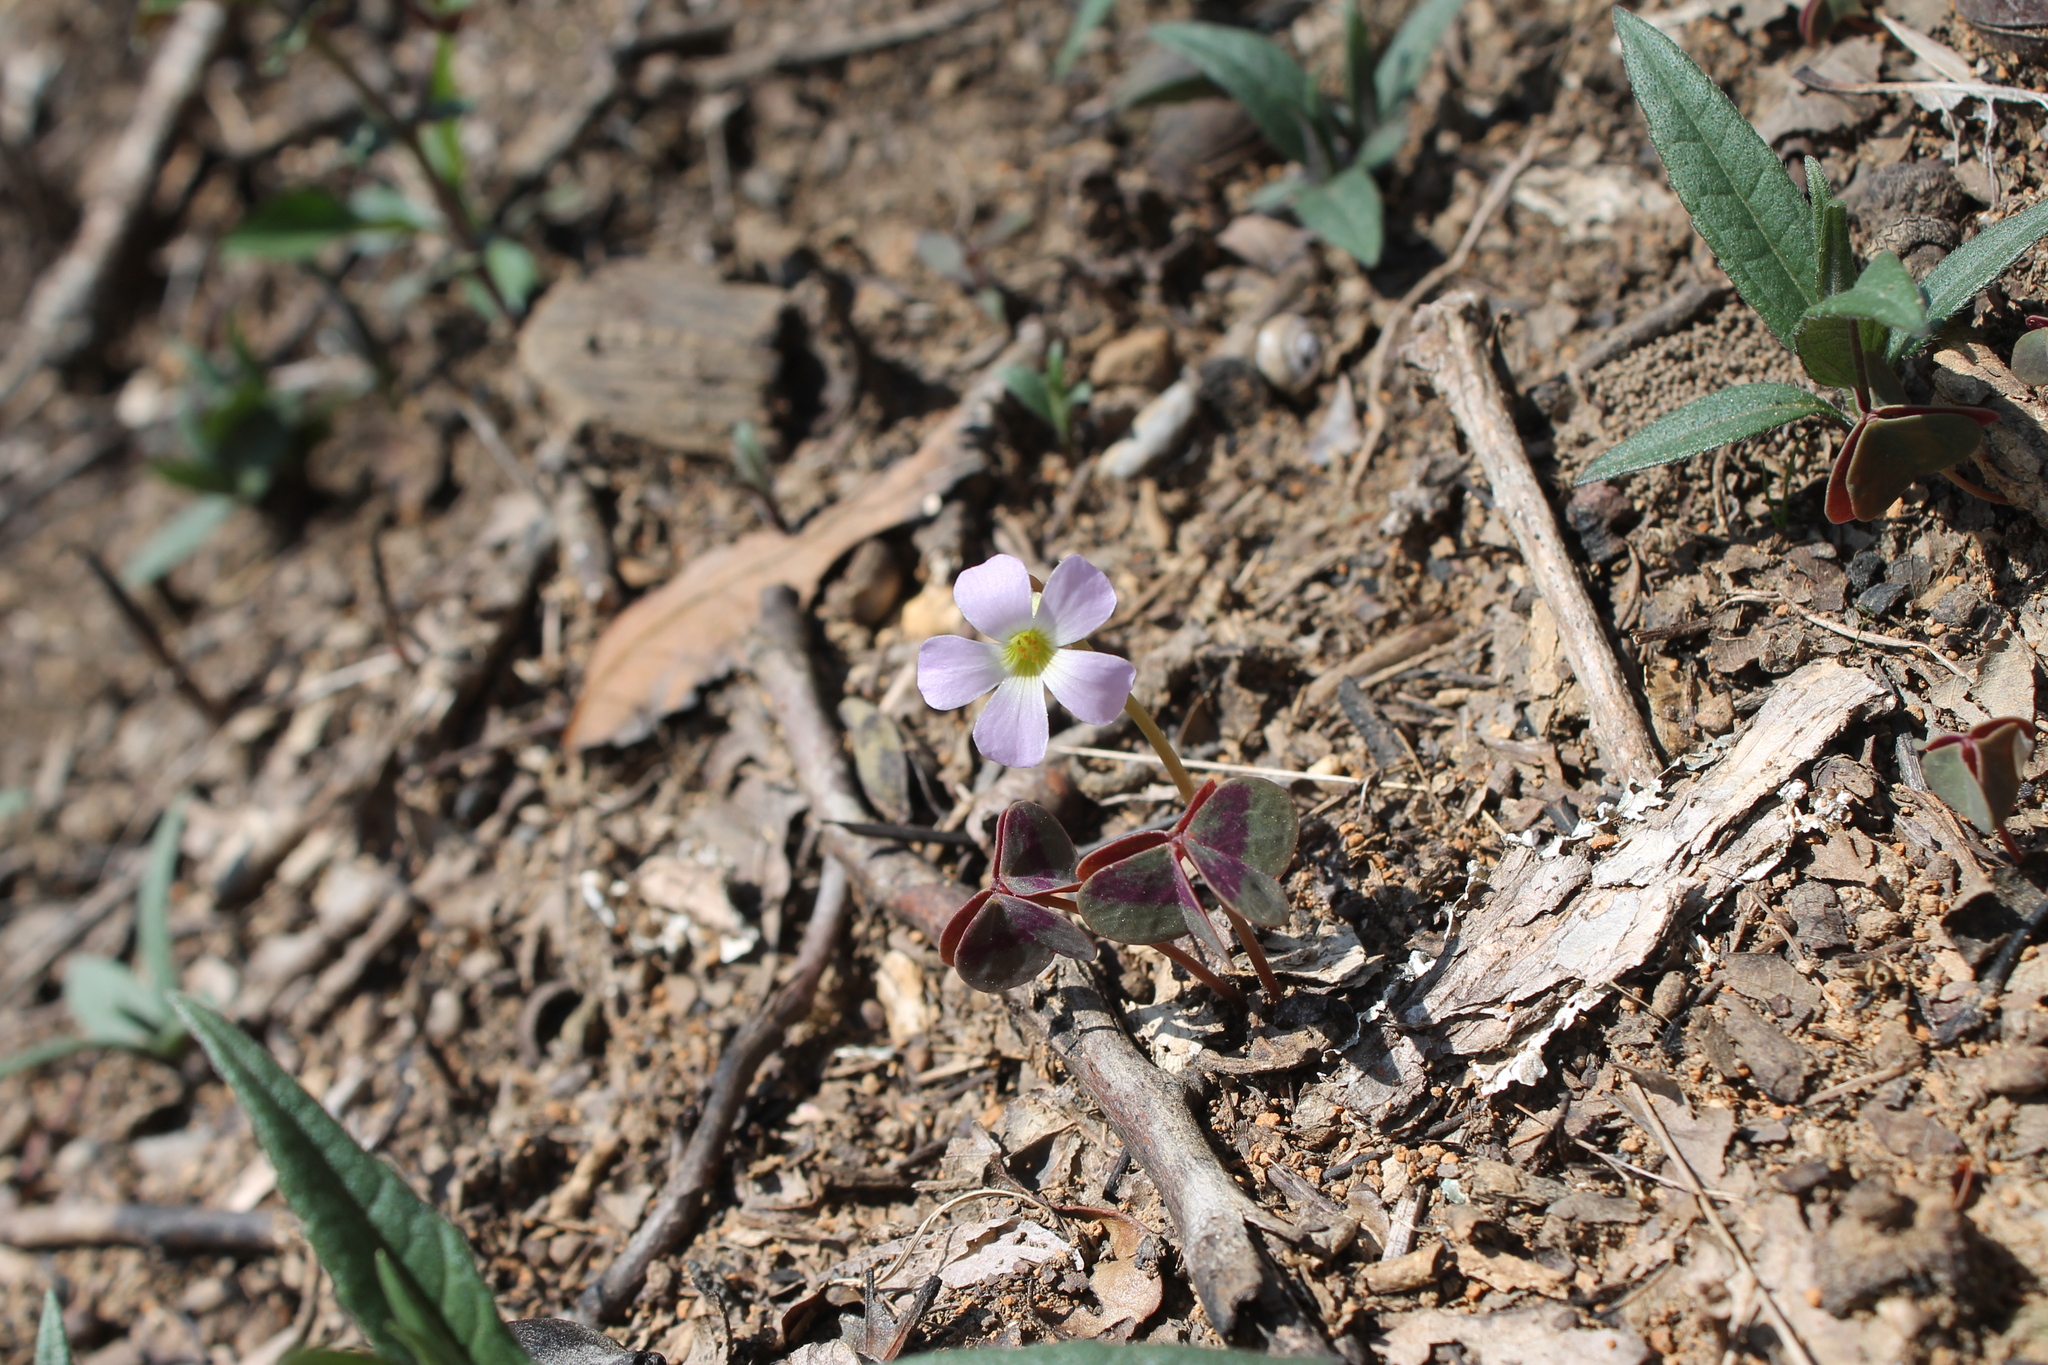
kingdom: Plantae
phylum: Tracheophyta
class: Magnoliopsida
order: Oxalidales
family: Oxalidaceae
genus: Oxalis
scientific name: Oxalis violacea
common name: Violet wood-sorrel
